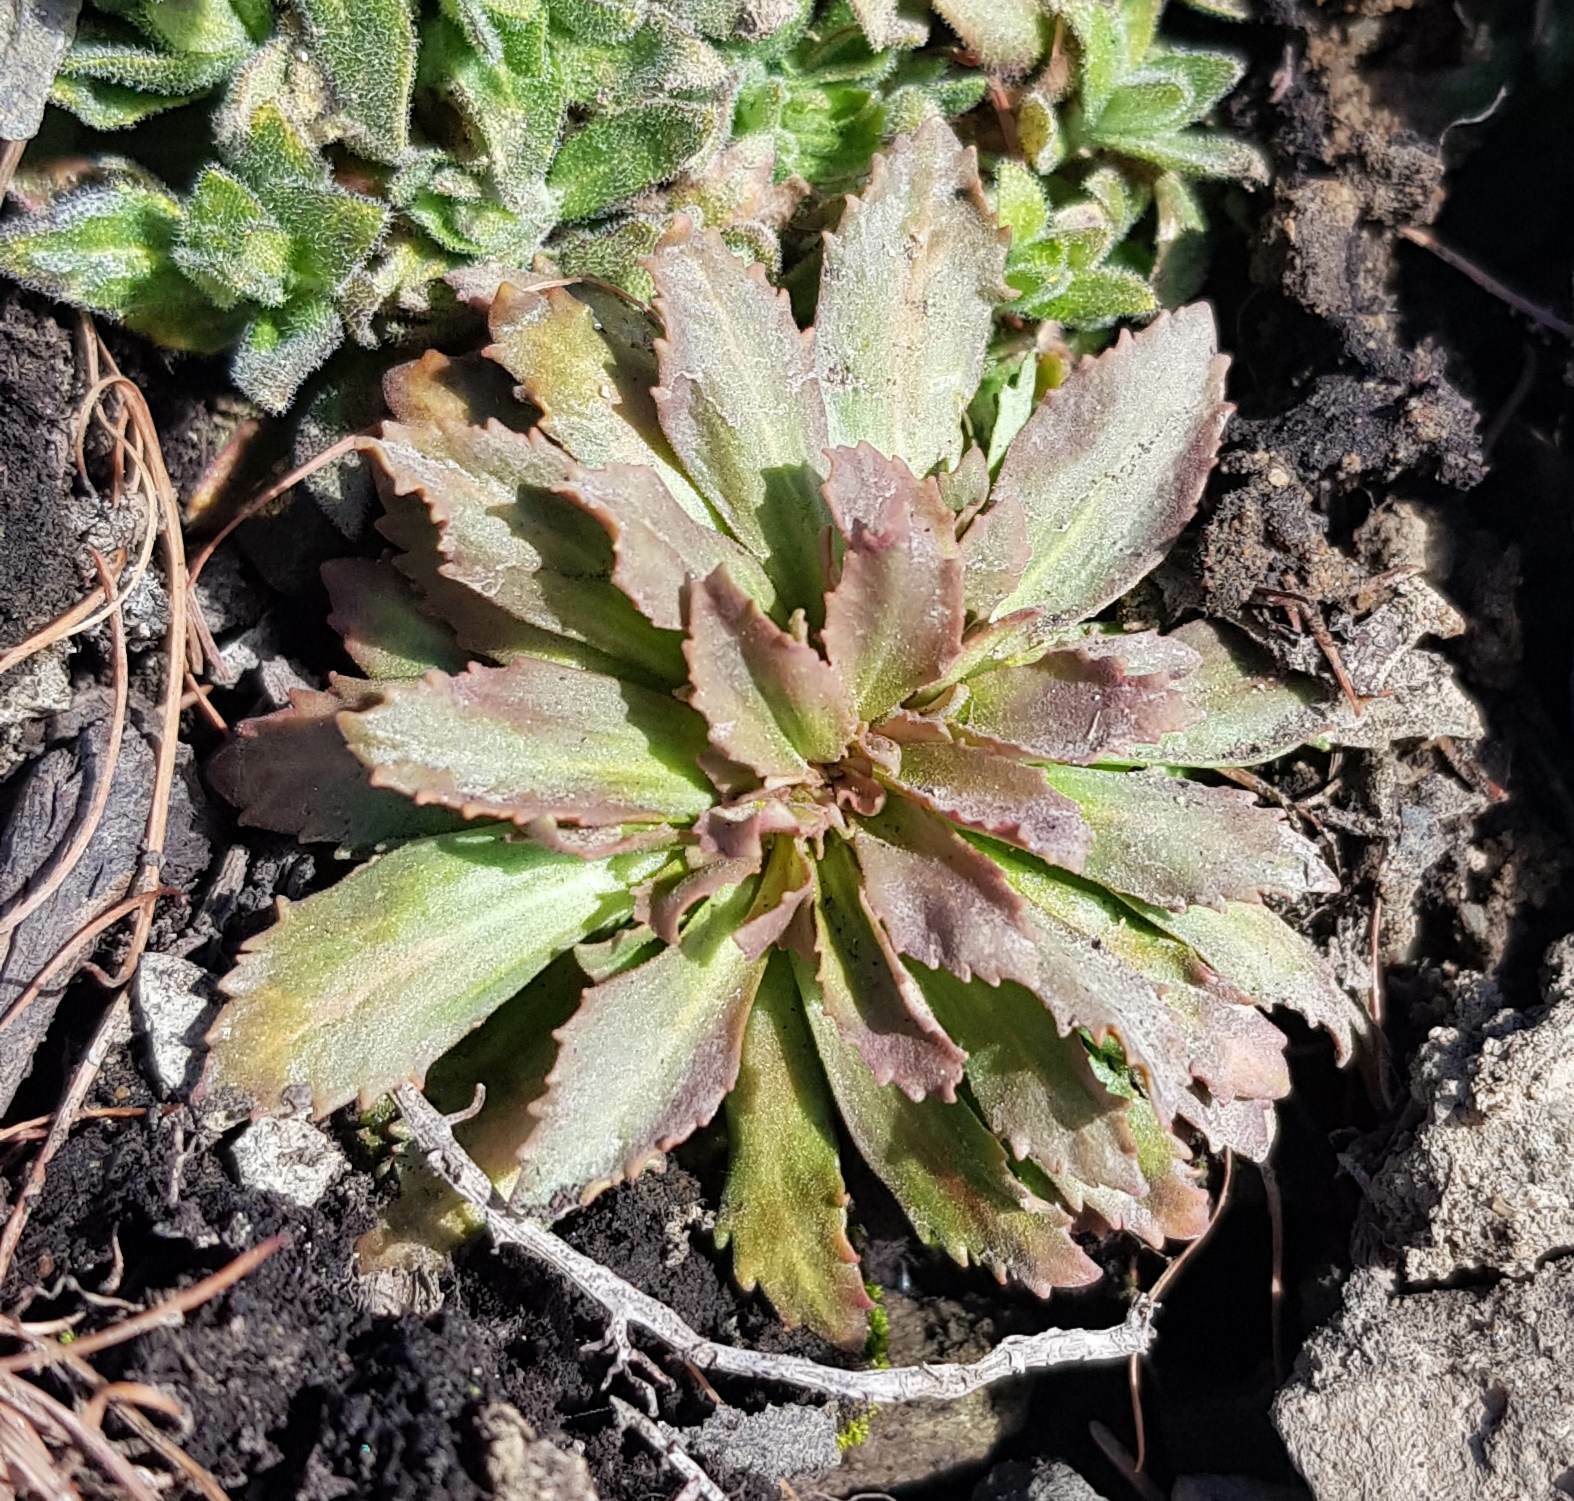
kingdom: Plantae
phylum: Tracheophyta
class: Magnoliopsida
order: Ericales
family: Primulaceae
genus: Androsace
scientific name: Androsace septentrionalis
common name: Hairy northern fairy-candelabra
